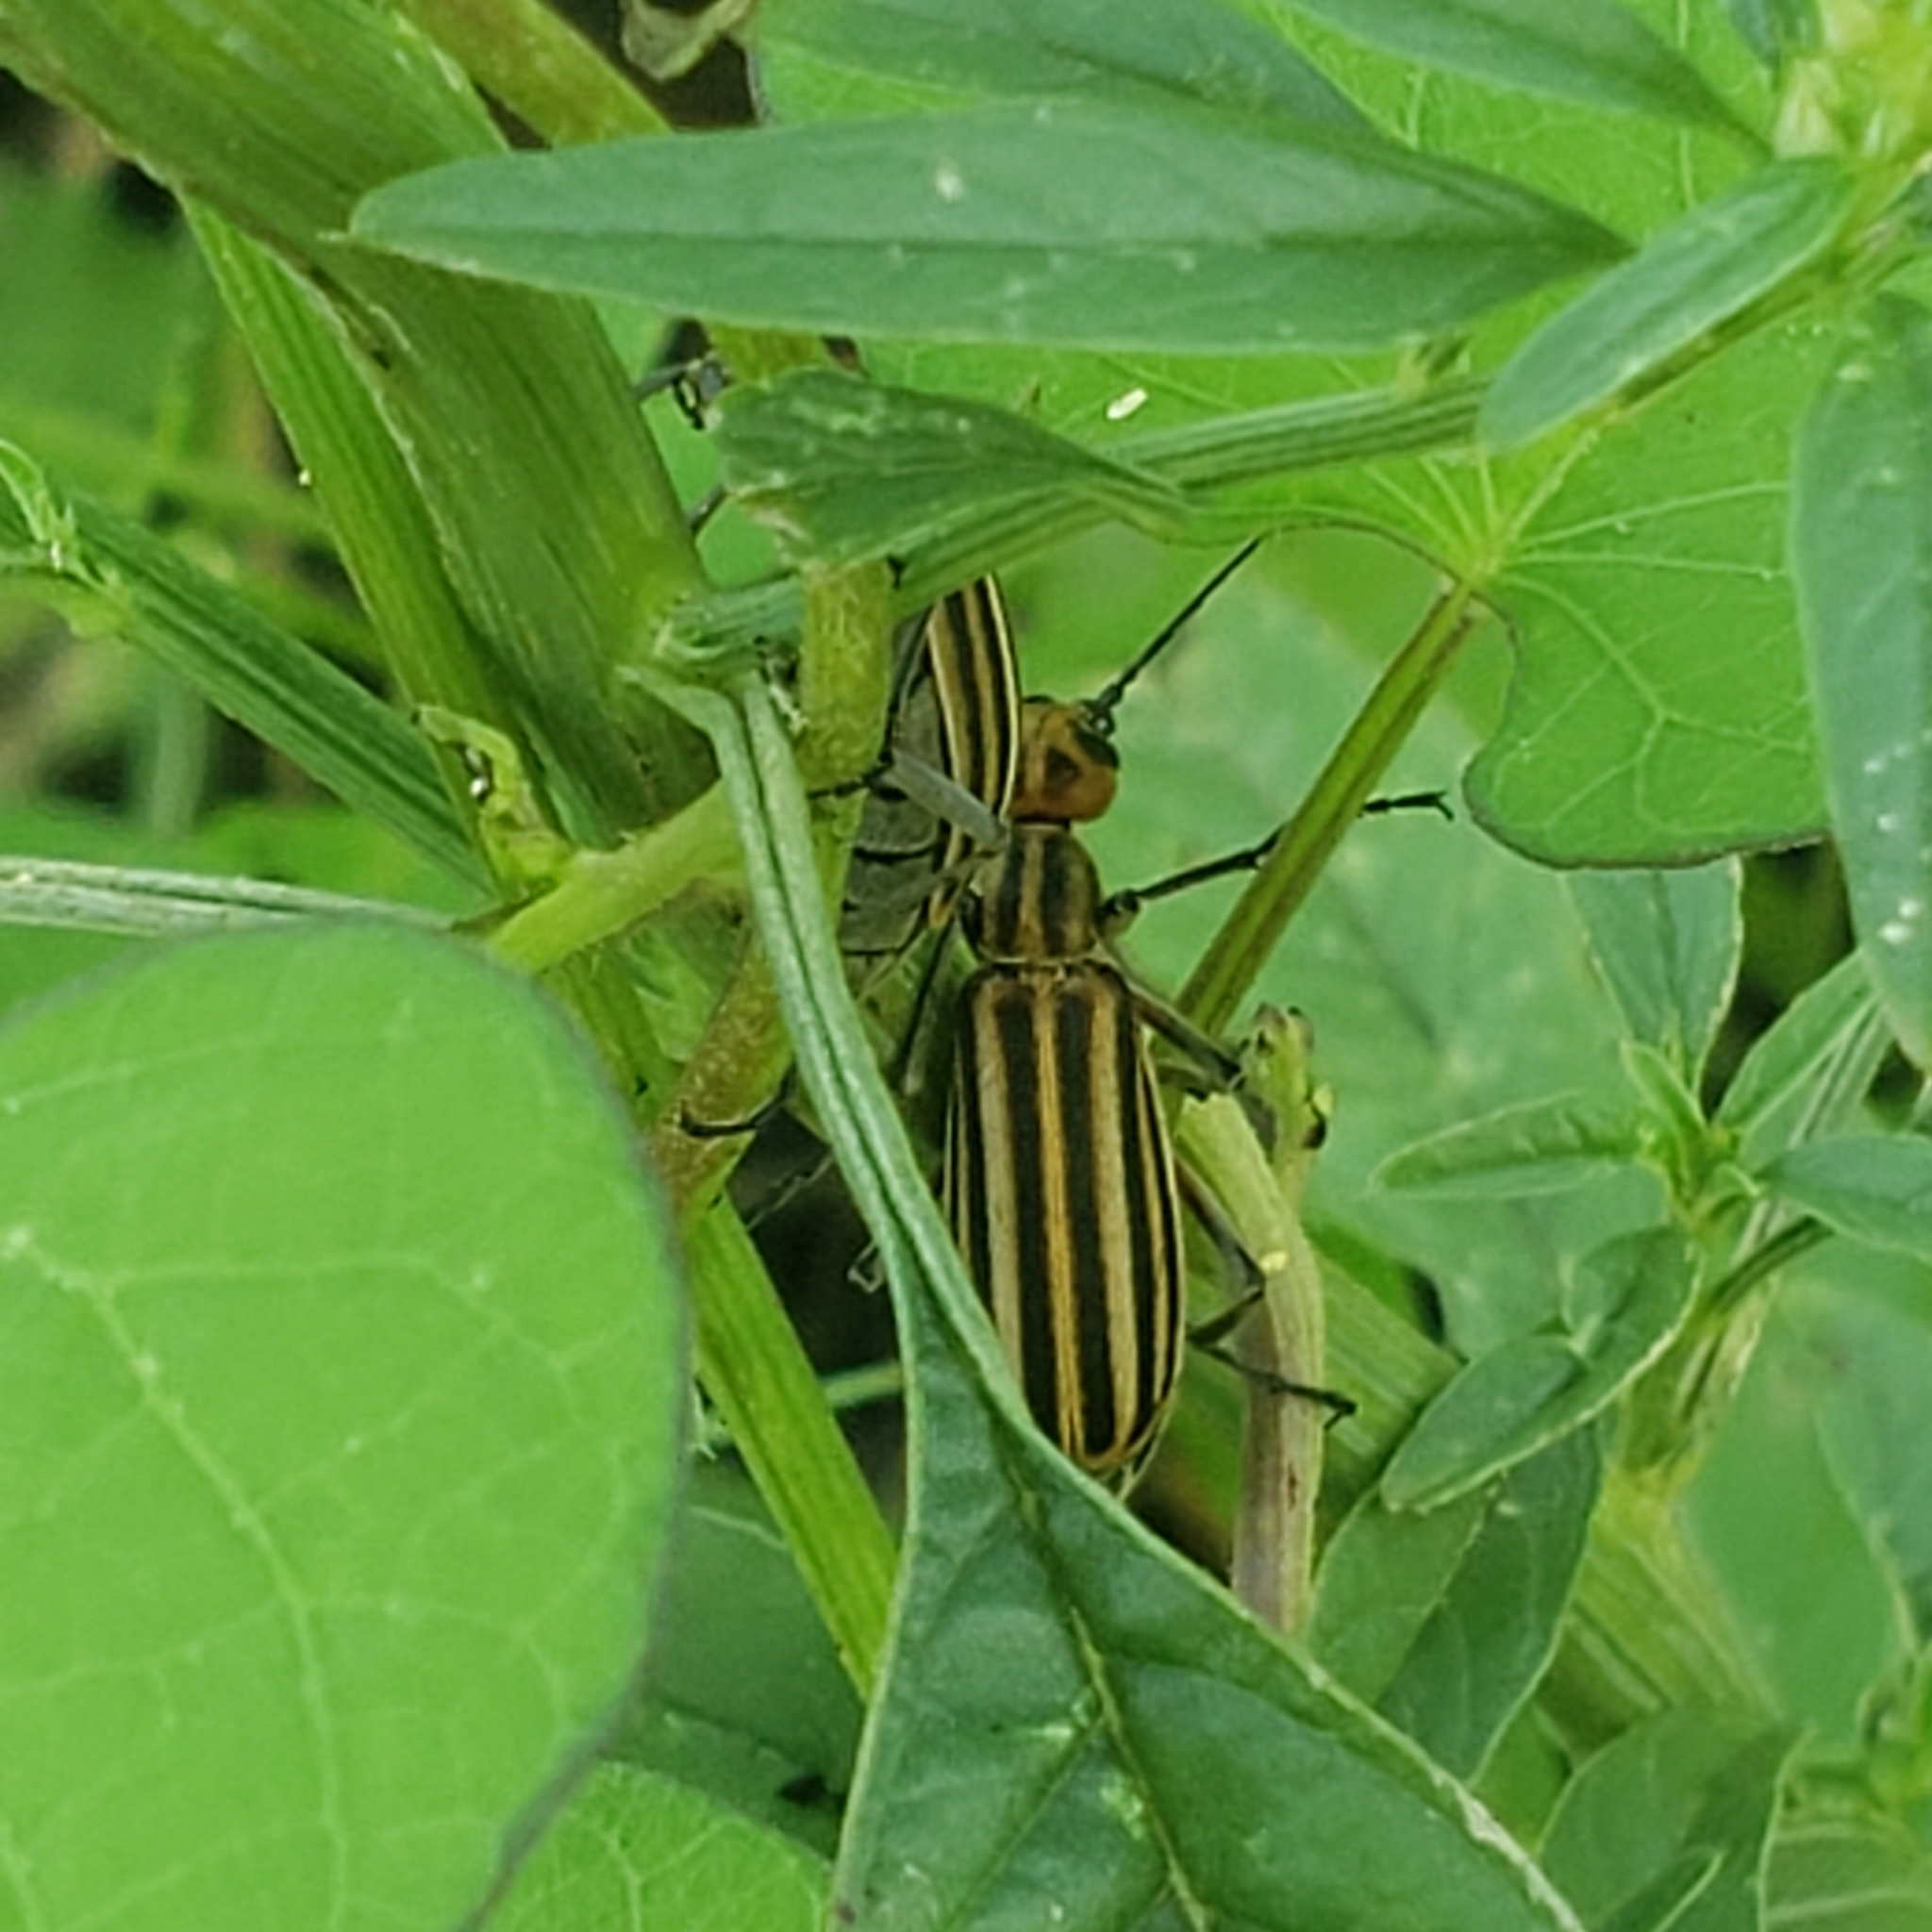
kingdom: Animalia
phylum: Arthropoda
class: Insecta
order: Coleoptera
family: Meloidae
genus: Epicauta
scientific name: Epicauta vittata
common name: Old-fashioned potato beetle
